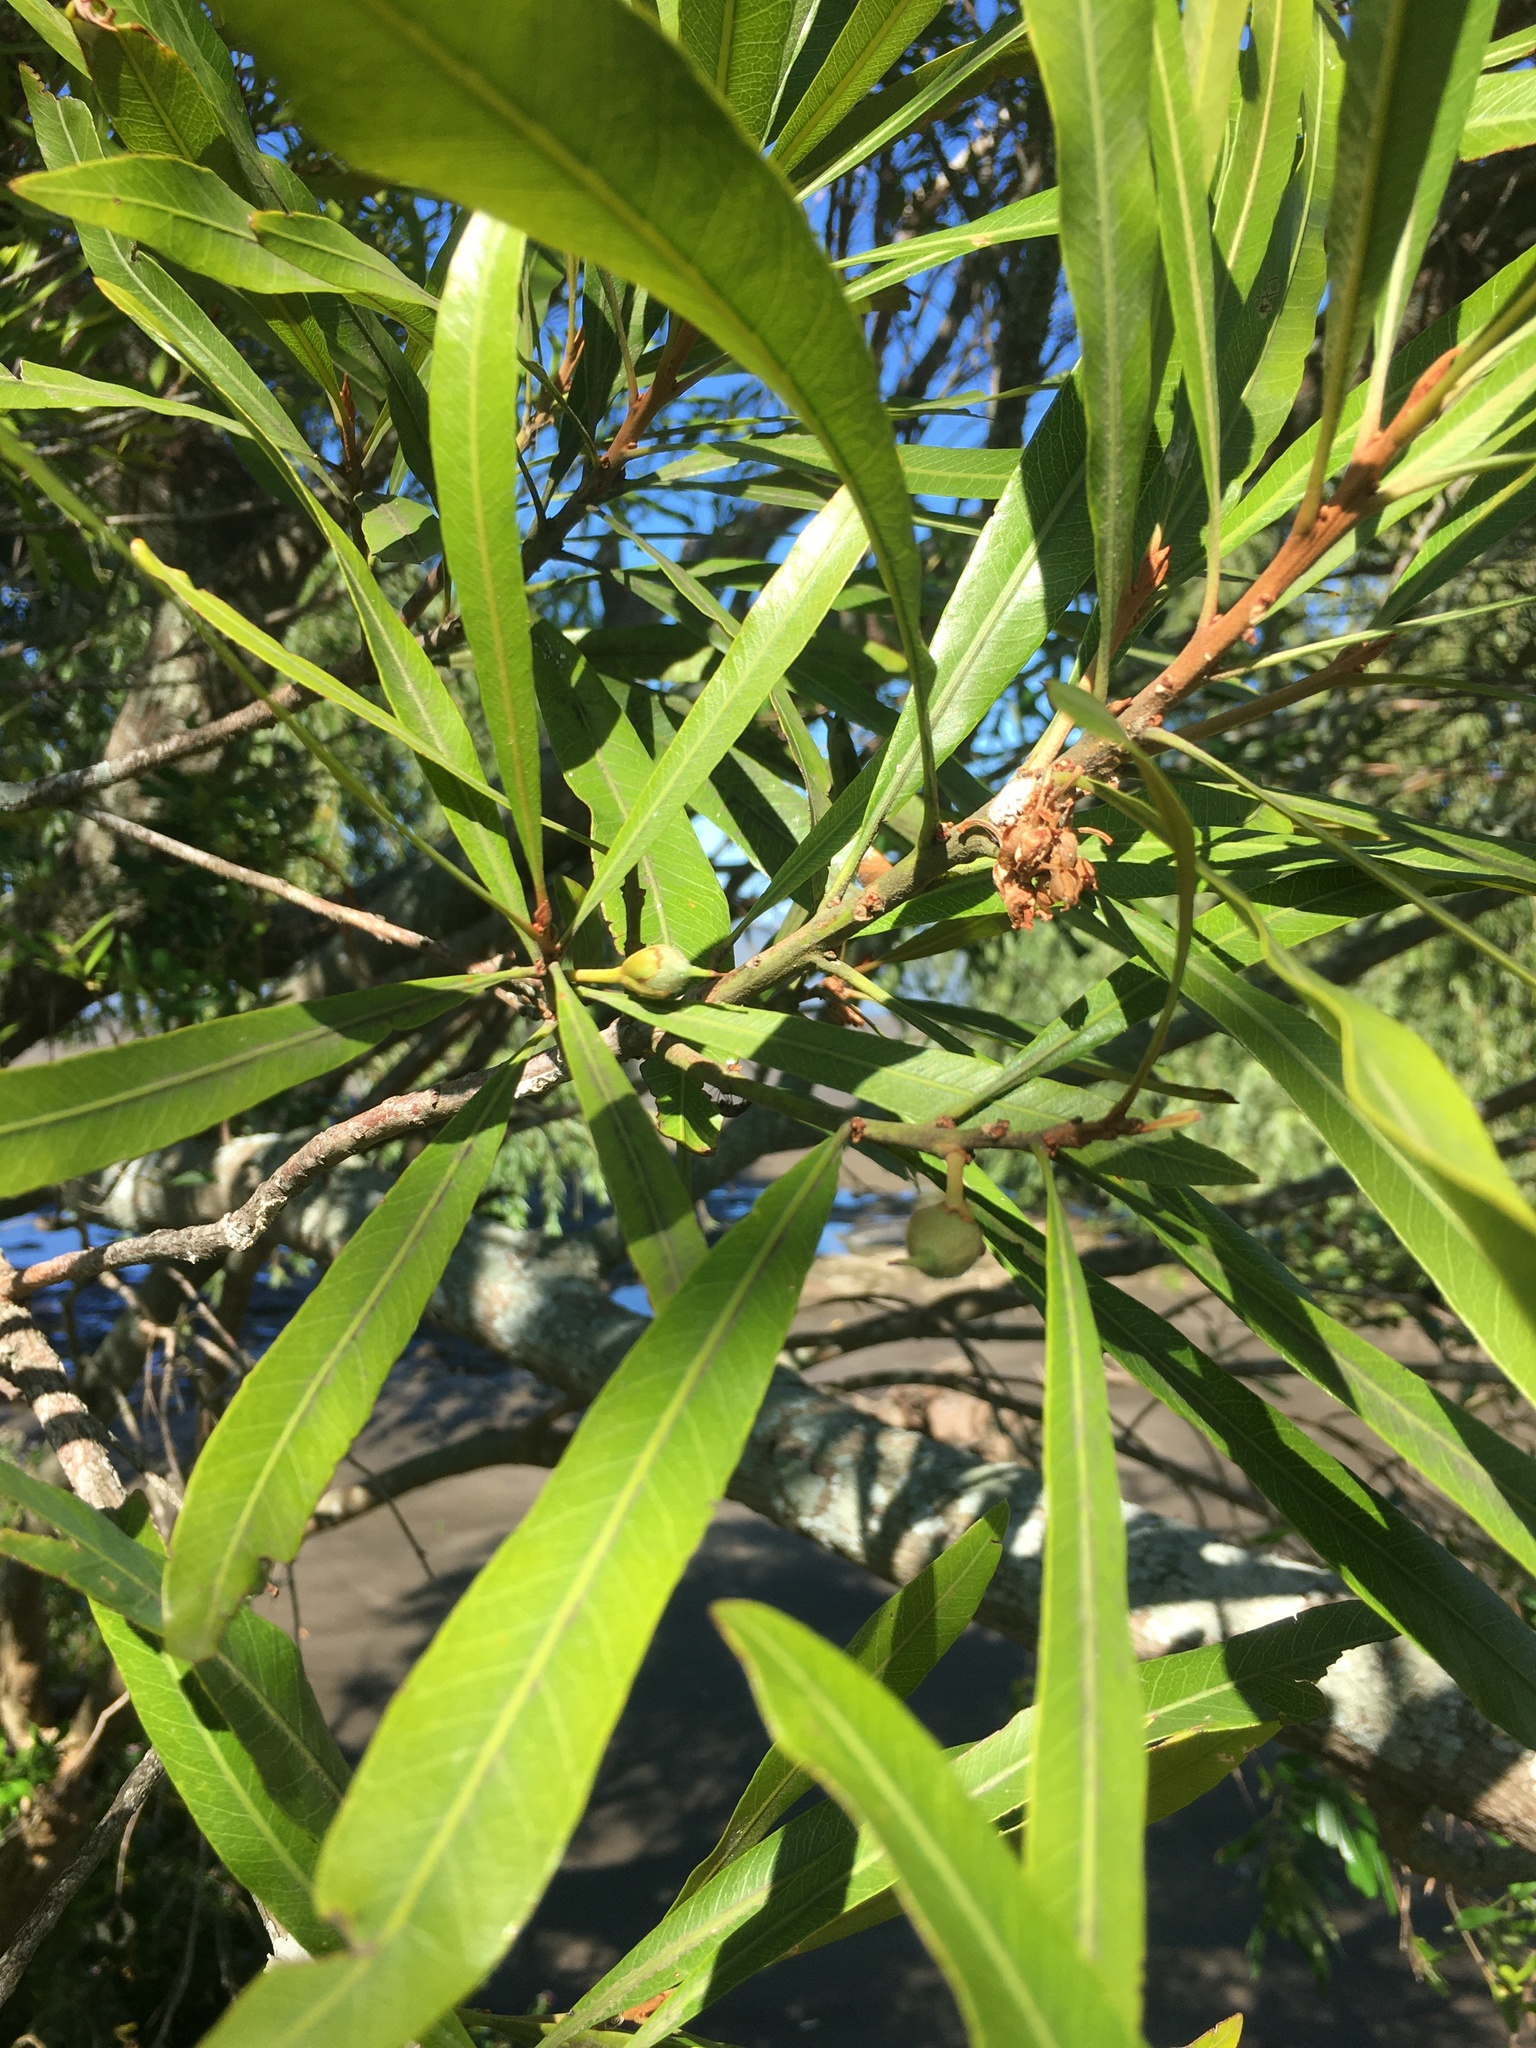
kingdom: Plantae
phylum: Tracheophyta
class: Magnoliopsida
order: Ericales
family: Sapotaceae
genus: Labatia
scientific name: Labatia salicifolia
